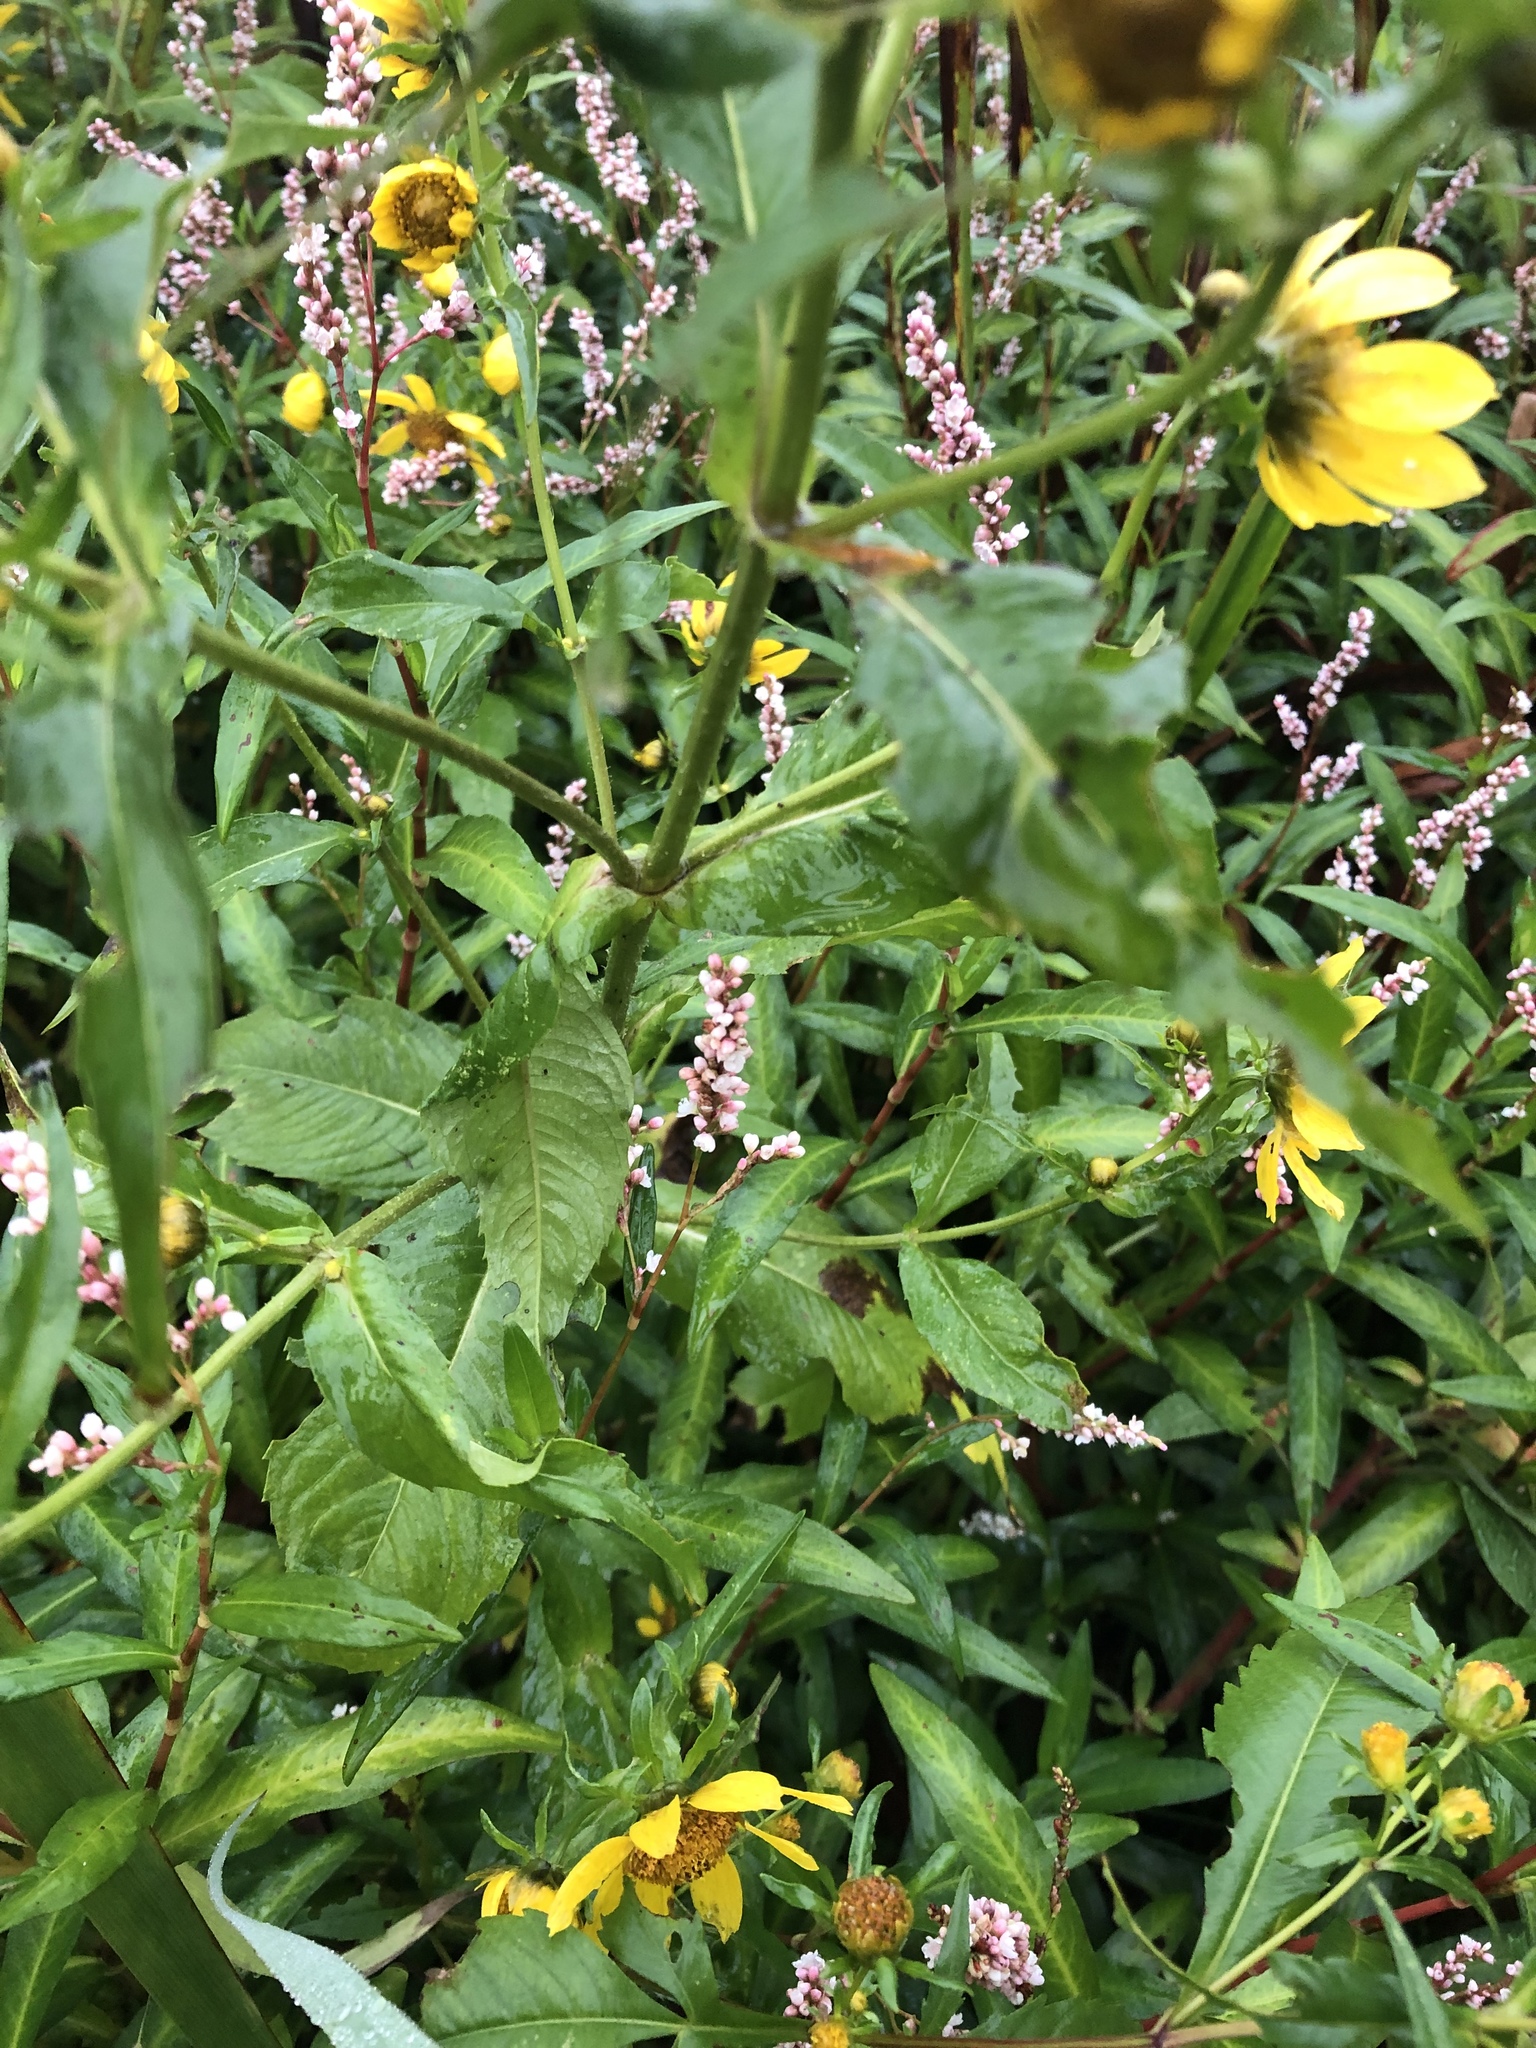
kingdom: Plantae
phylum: Tracheophyta
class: Magnoliopsida
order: Asterales
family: Asteraceae
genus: Bidens
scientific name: Bidens cernua
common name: Nodding bur-marigold
